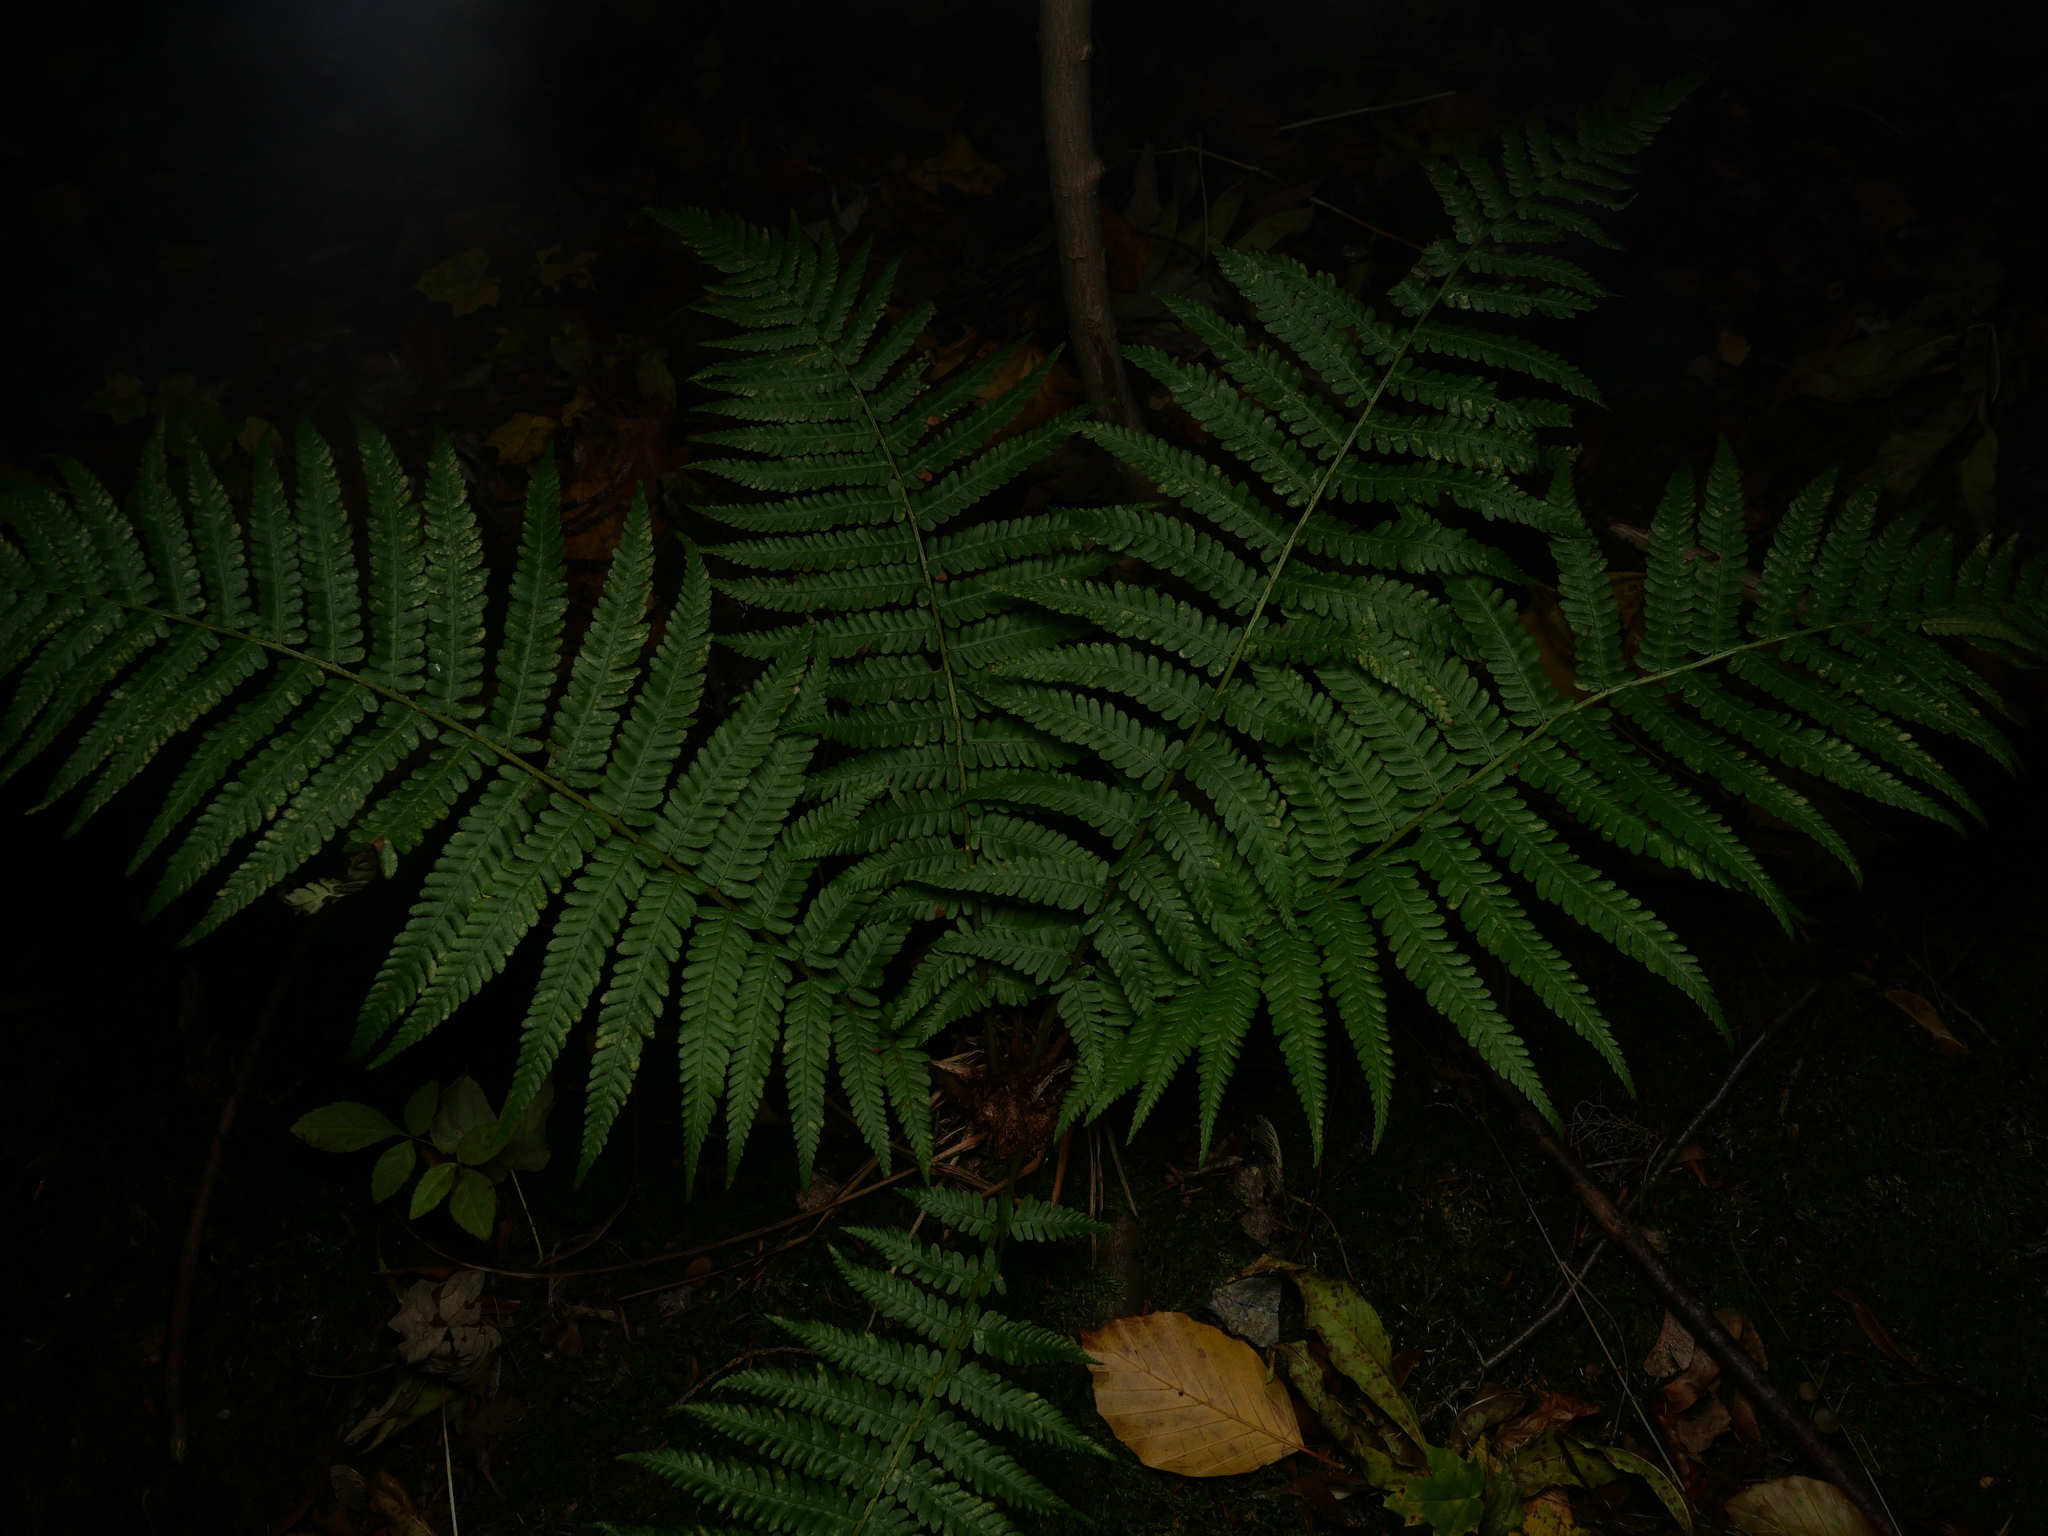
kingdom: Plantae
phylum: Tracheophyta
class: Polypodiopsida
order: Polypodiales
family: Dryopteridaceae
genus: Dryopteris
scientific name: Dryopteris filix-mas
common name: Male fern
